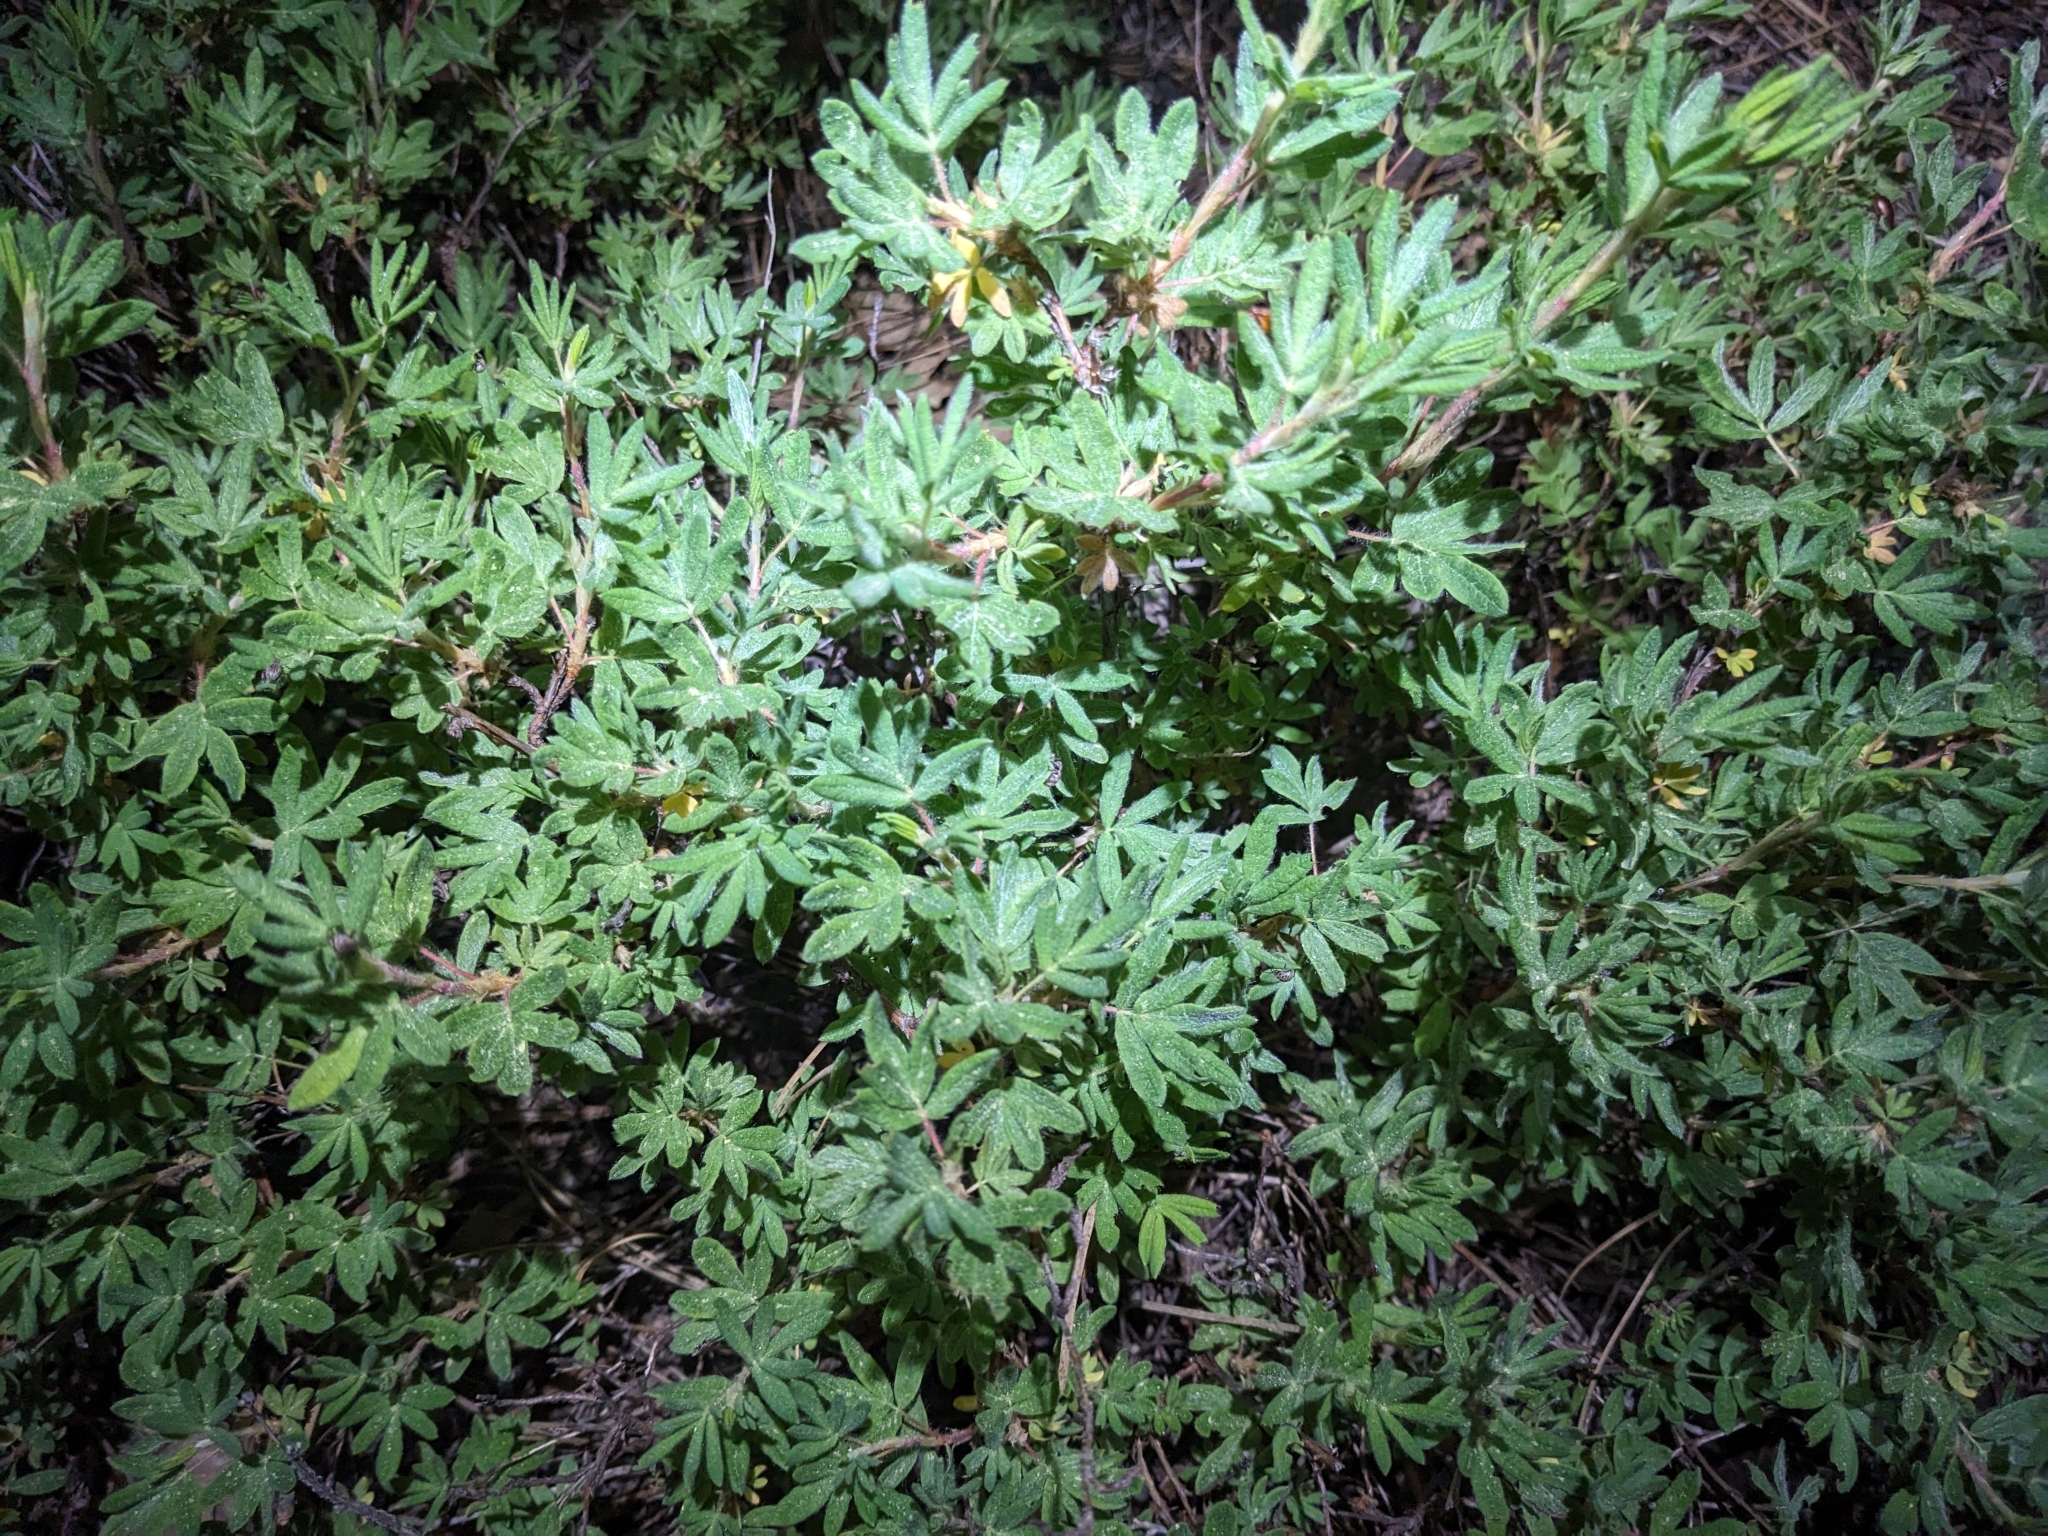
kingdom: Plantae
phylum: Tracheophyta
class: Magnoliopsida
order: Rosales
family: Rosaceae
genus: Dasiphora
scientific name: Dasiphora fruticosa
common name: Shrubby cinquefoil
